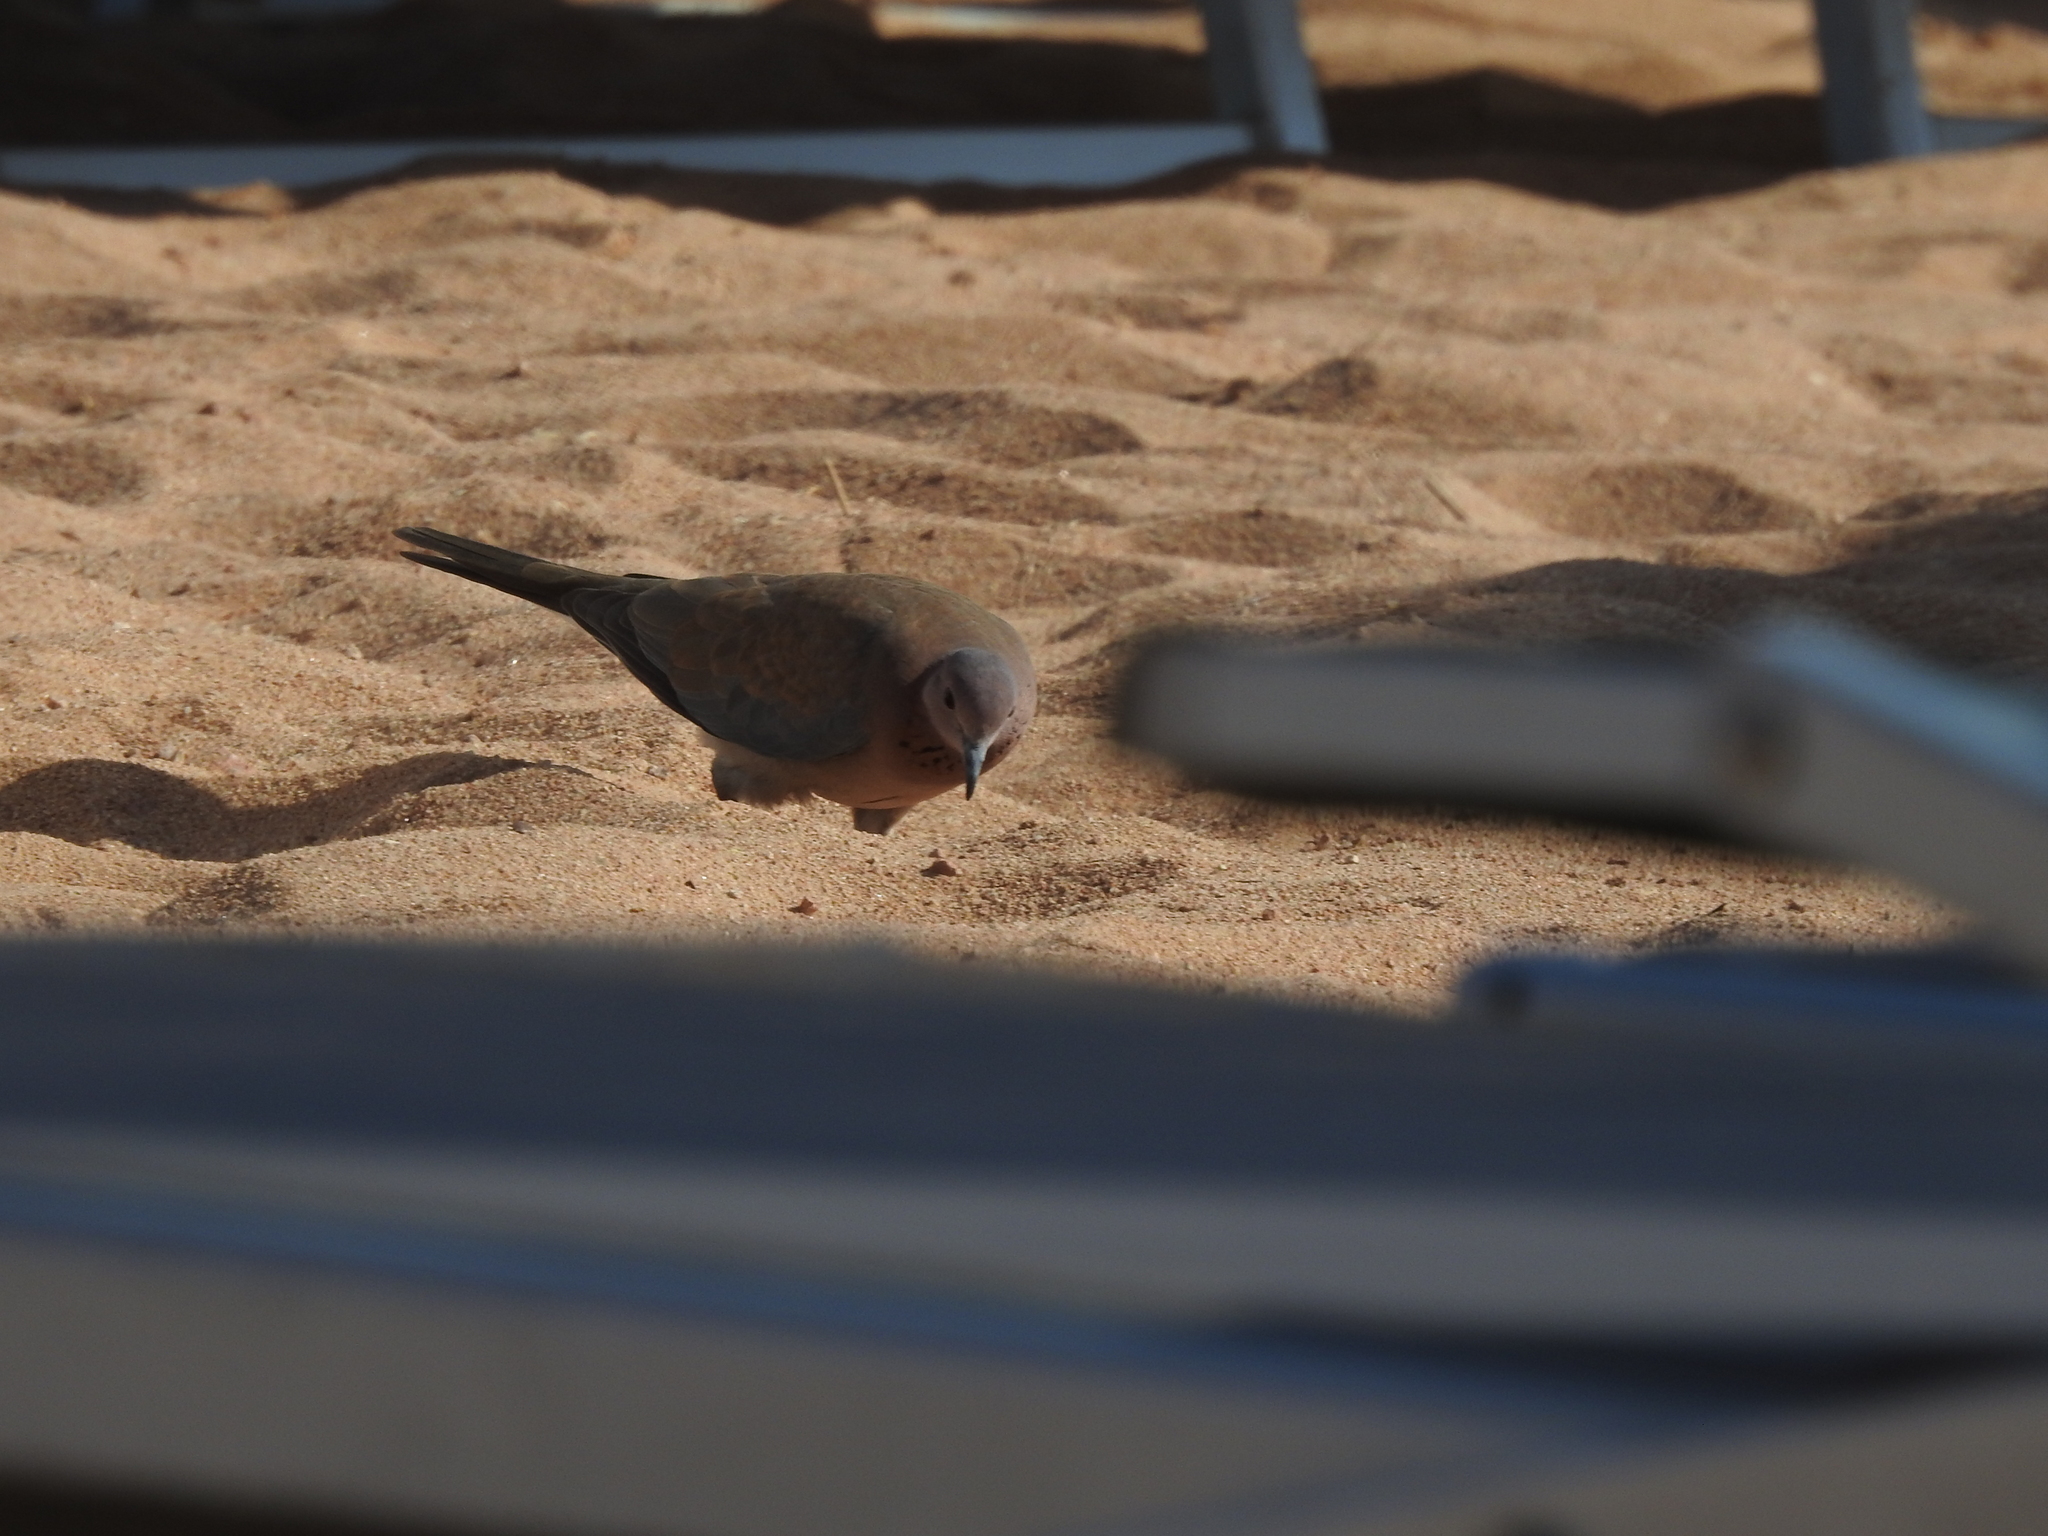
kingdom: Animalia
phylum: Chordata
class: Aves
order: Columbiformes
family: Columbidae
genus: Spilopelia
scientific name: Spilopelia senegalensis
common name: Laughing dove
